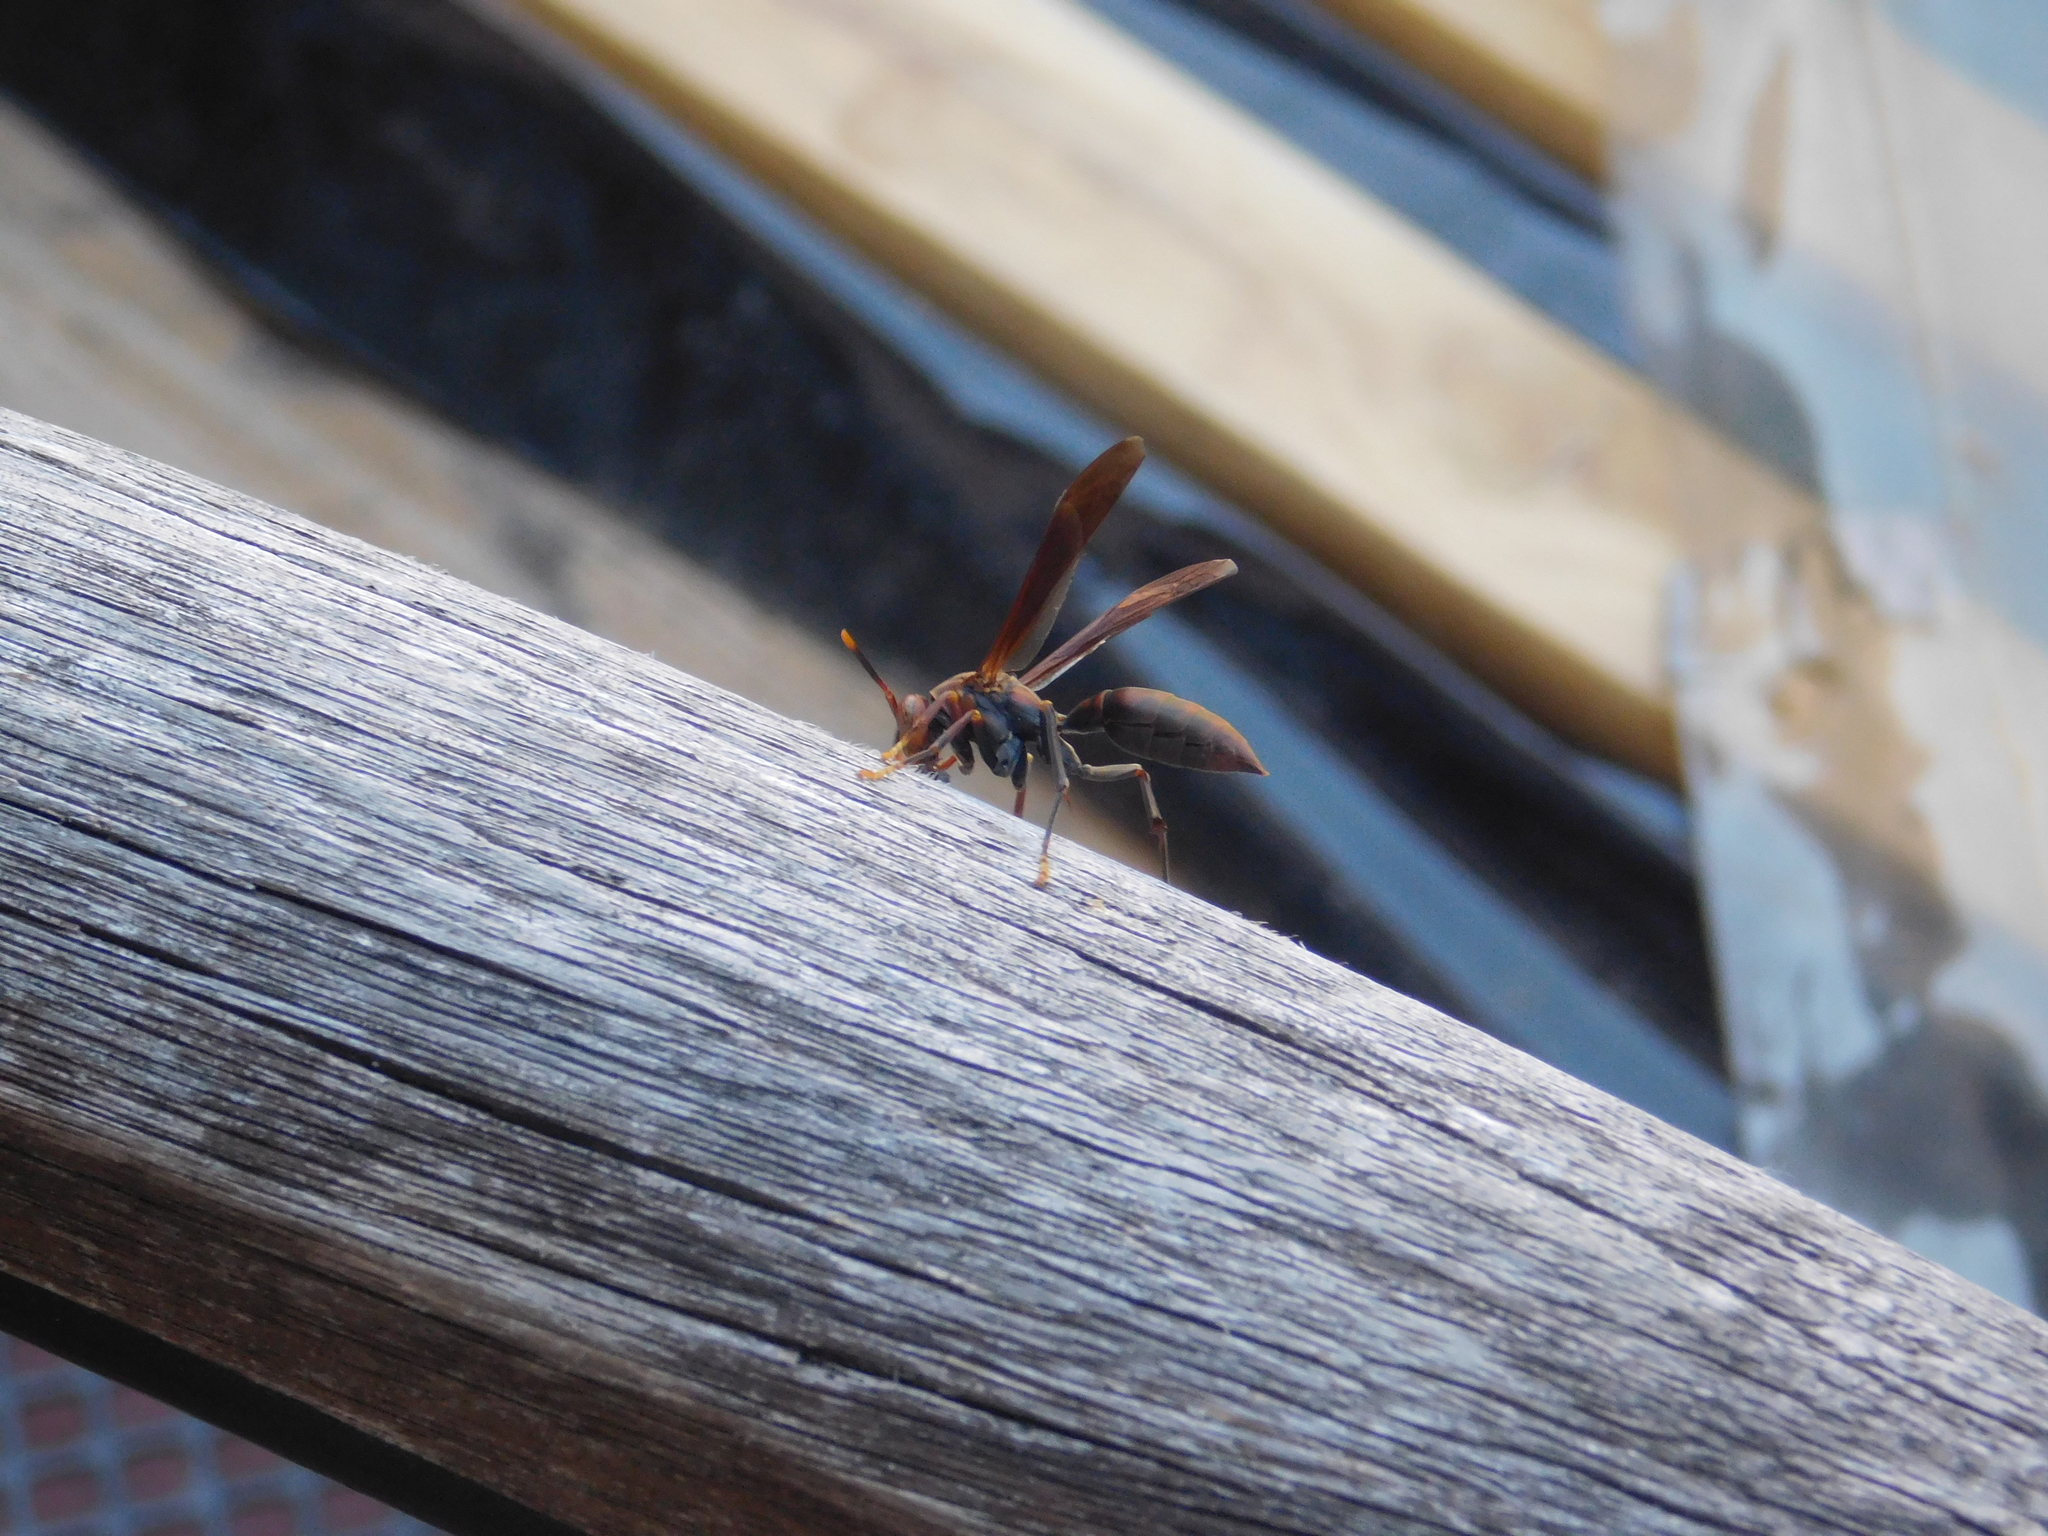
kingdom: Animalia
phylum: Arthropoda
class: Insecta
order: Hymenoptera
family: Pompilidae
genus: Aphanilopterus
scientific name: Aphanilopterus
